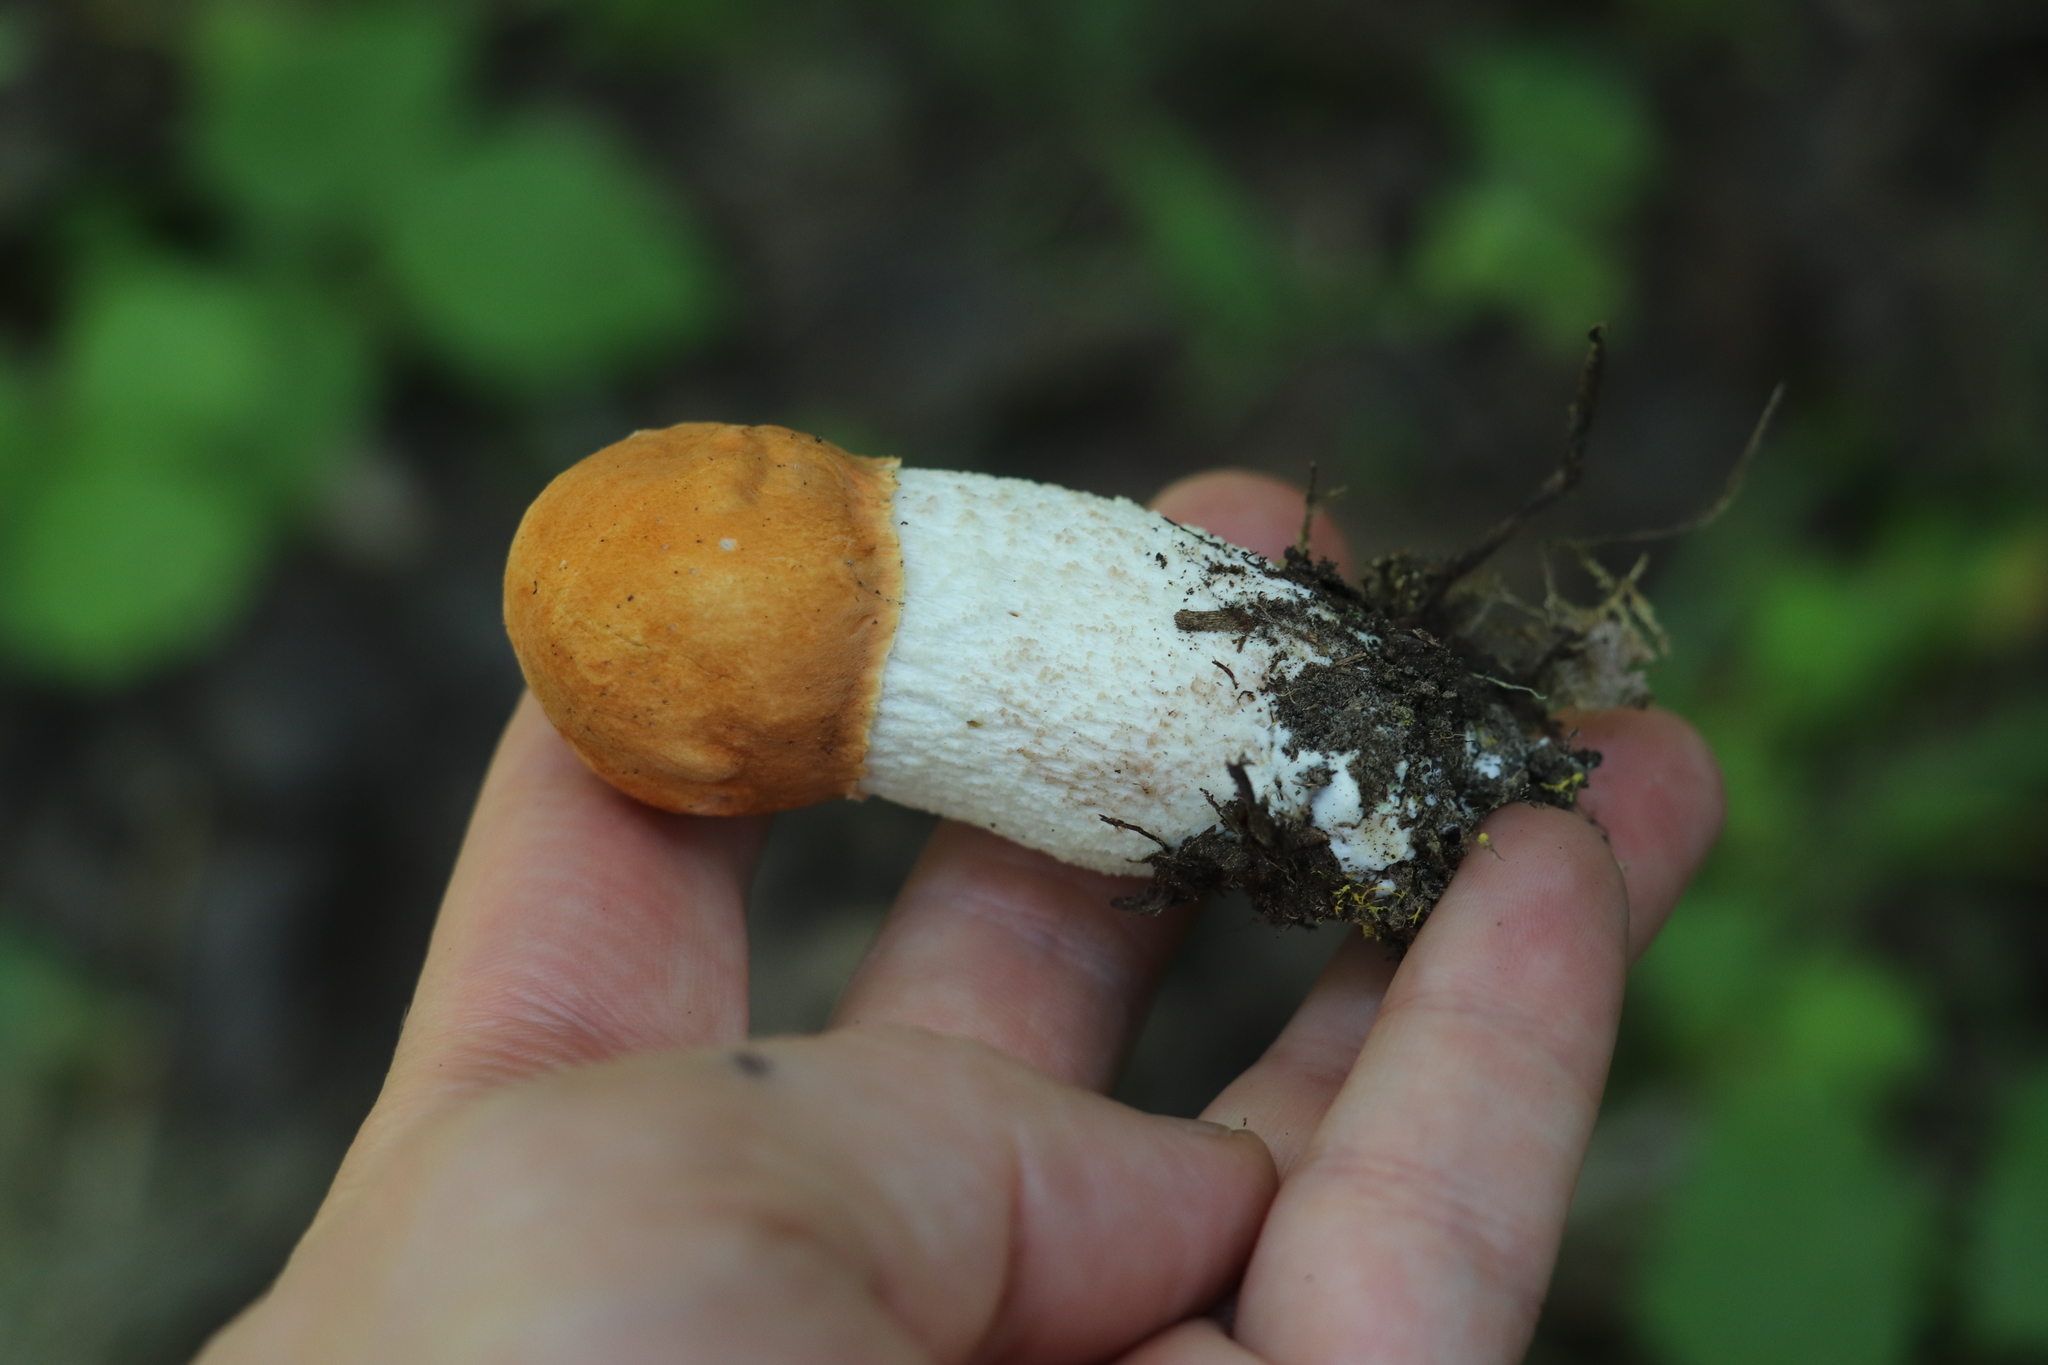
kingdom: Fungi
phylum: Basidiomycota
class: Agaricomycetes
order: Boletales
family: Boletaceae
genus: Leccinum
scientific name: Leccinum albostipitatum
